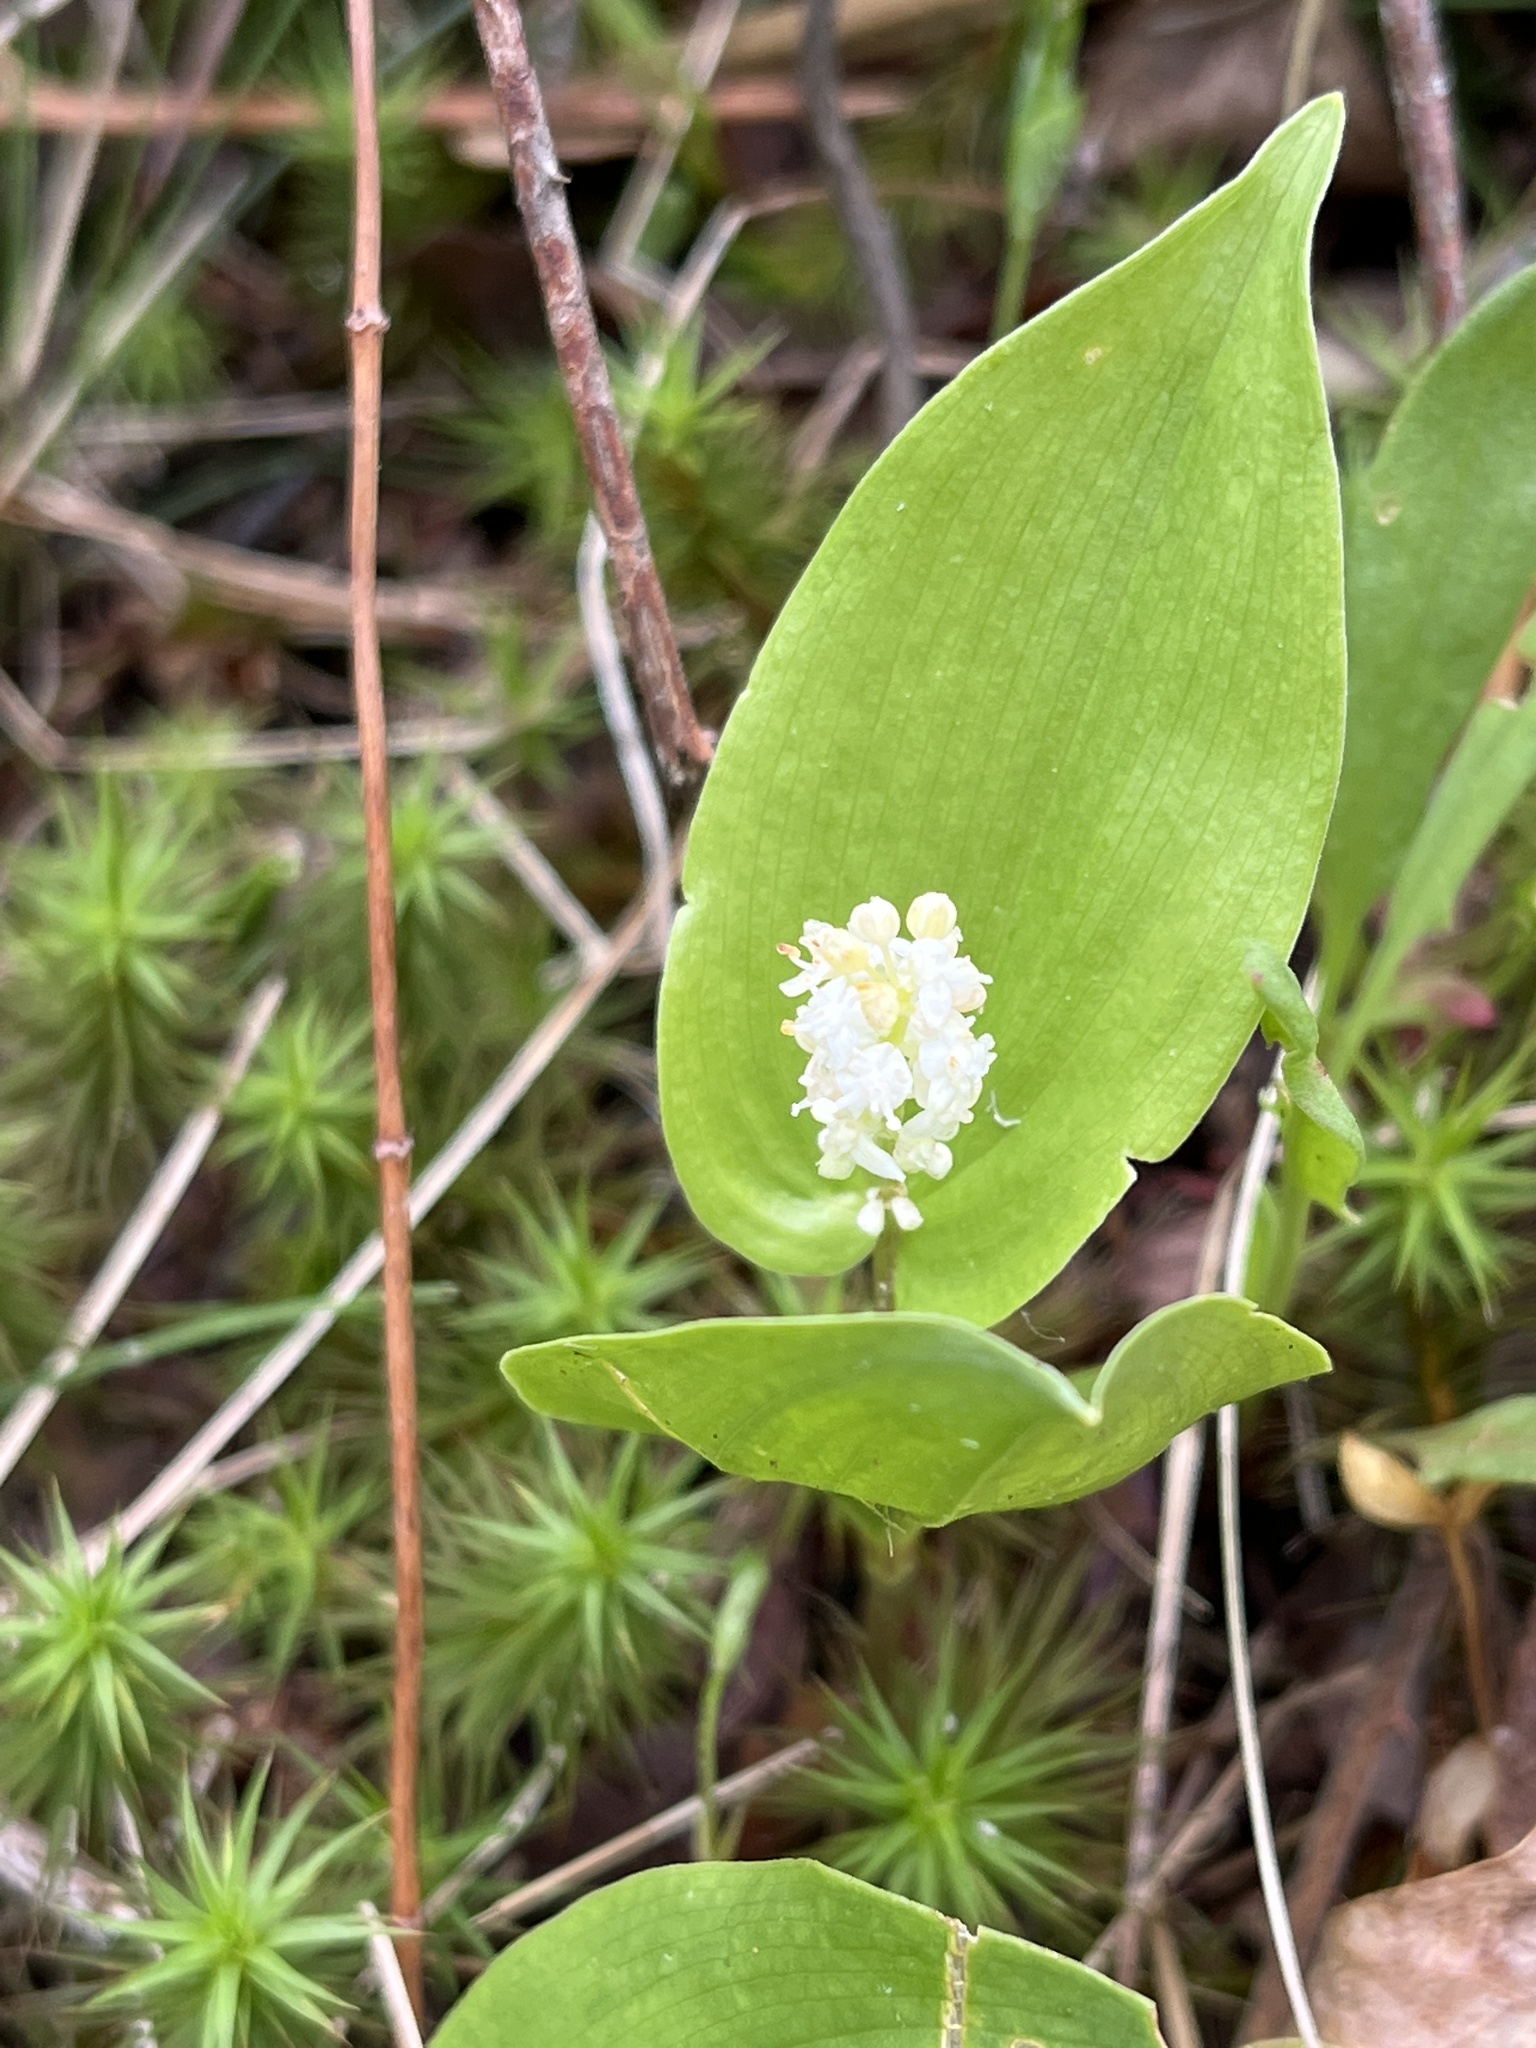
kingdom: Plantae
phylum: Tracheophyta
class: Liliopsida
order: Asparagales
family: Asparagaceae
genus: Maianthemum
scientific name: Maianthemum canadense
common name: False lily-of-the-valley
